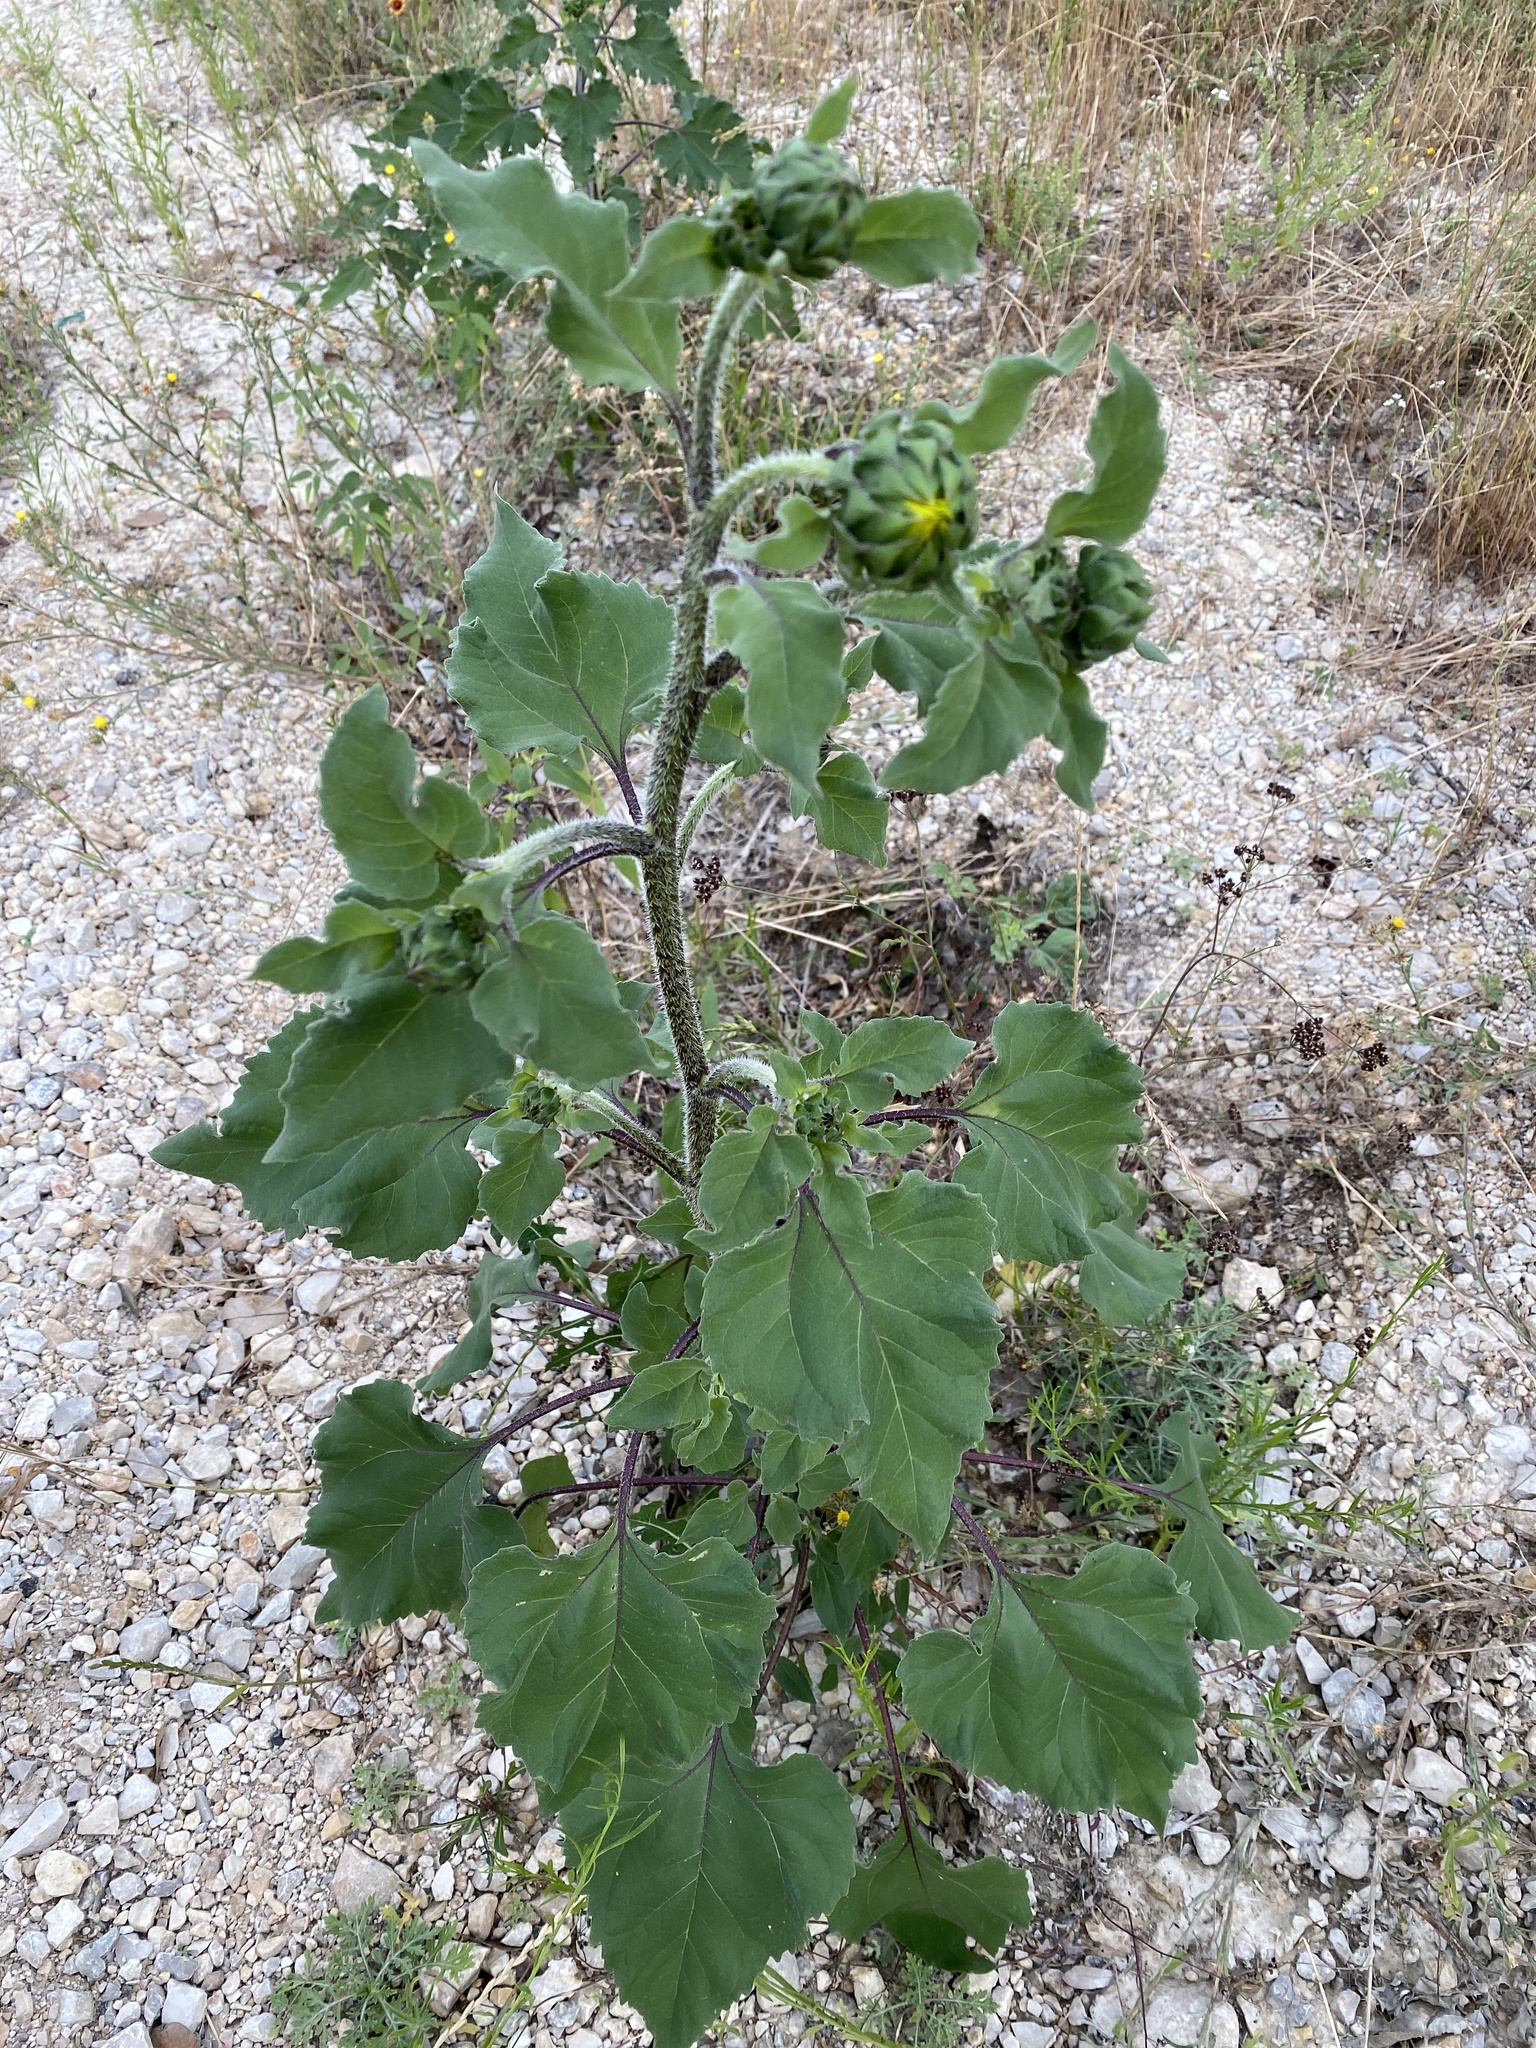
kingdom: Plantae
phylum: Tracheophyta
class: Magnoliopsida
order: Asterales
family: Asteraceae
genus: Helianthus
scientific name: Helianthus annuus
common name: Sunflower
